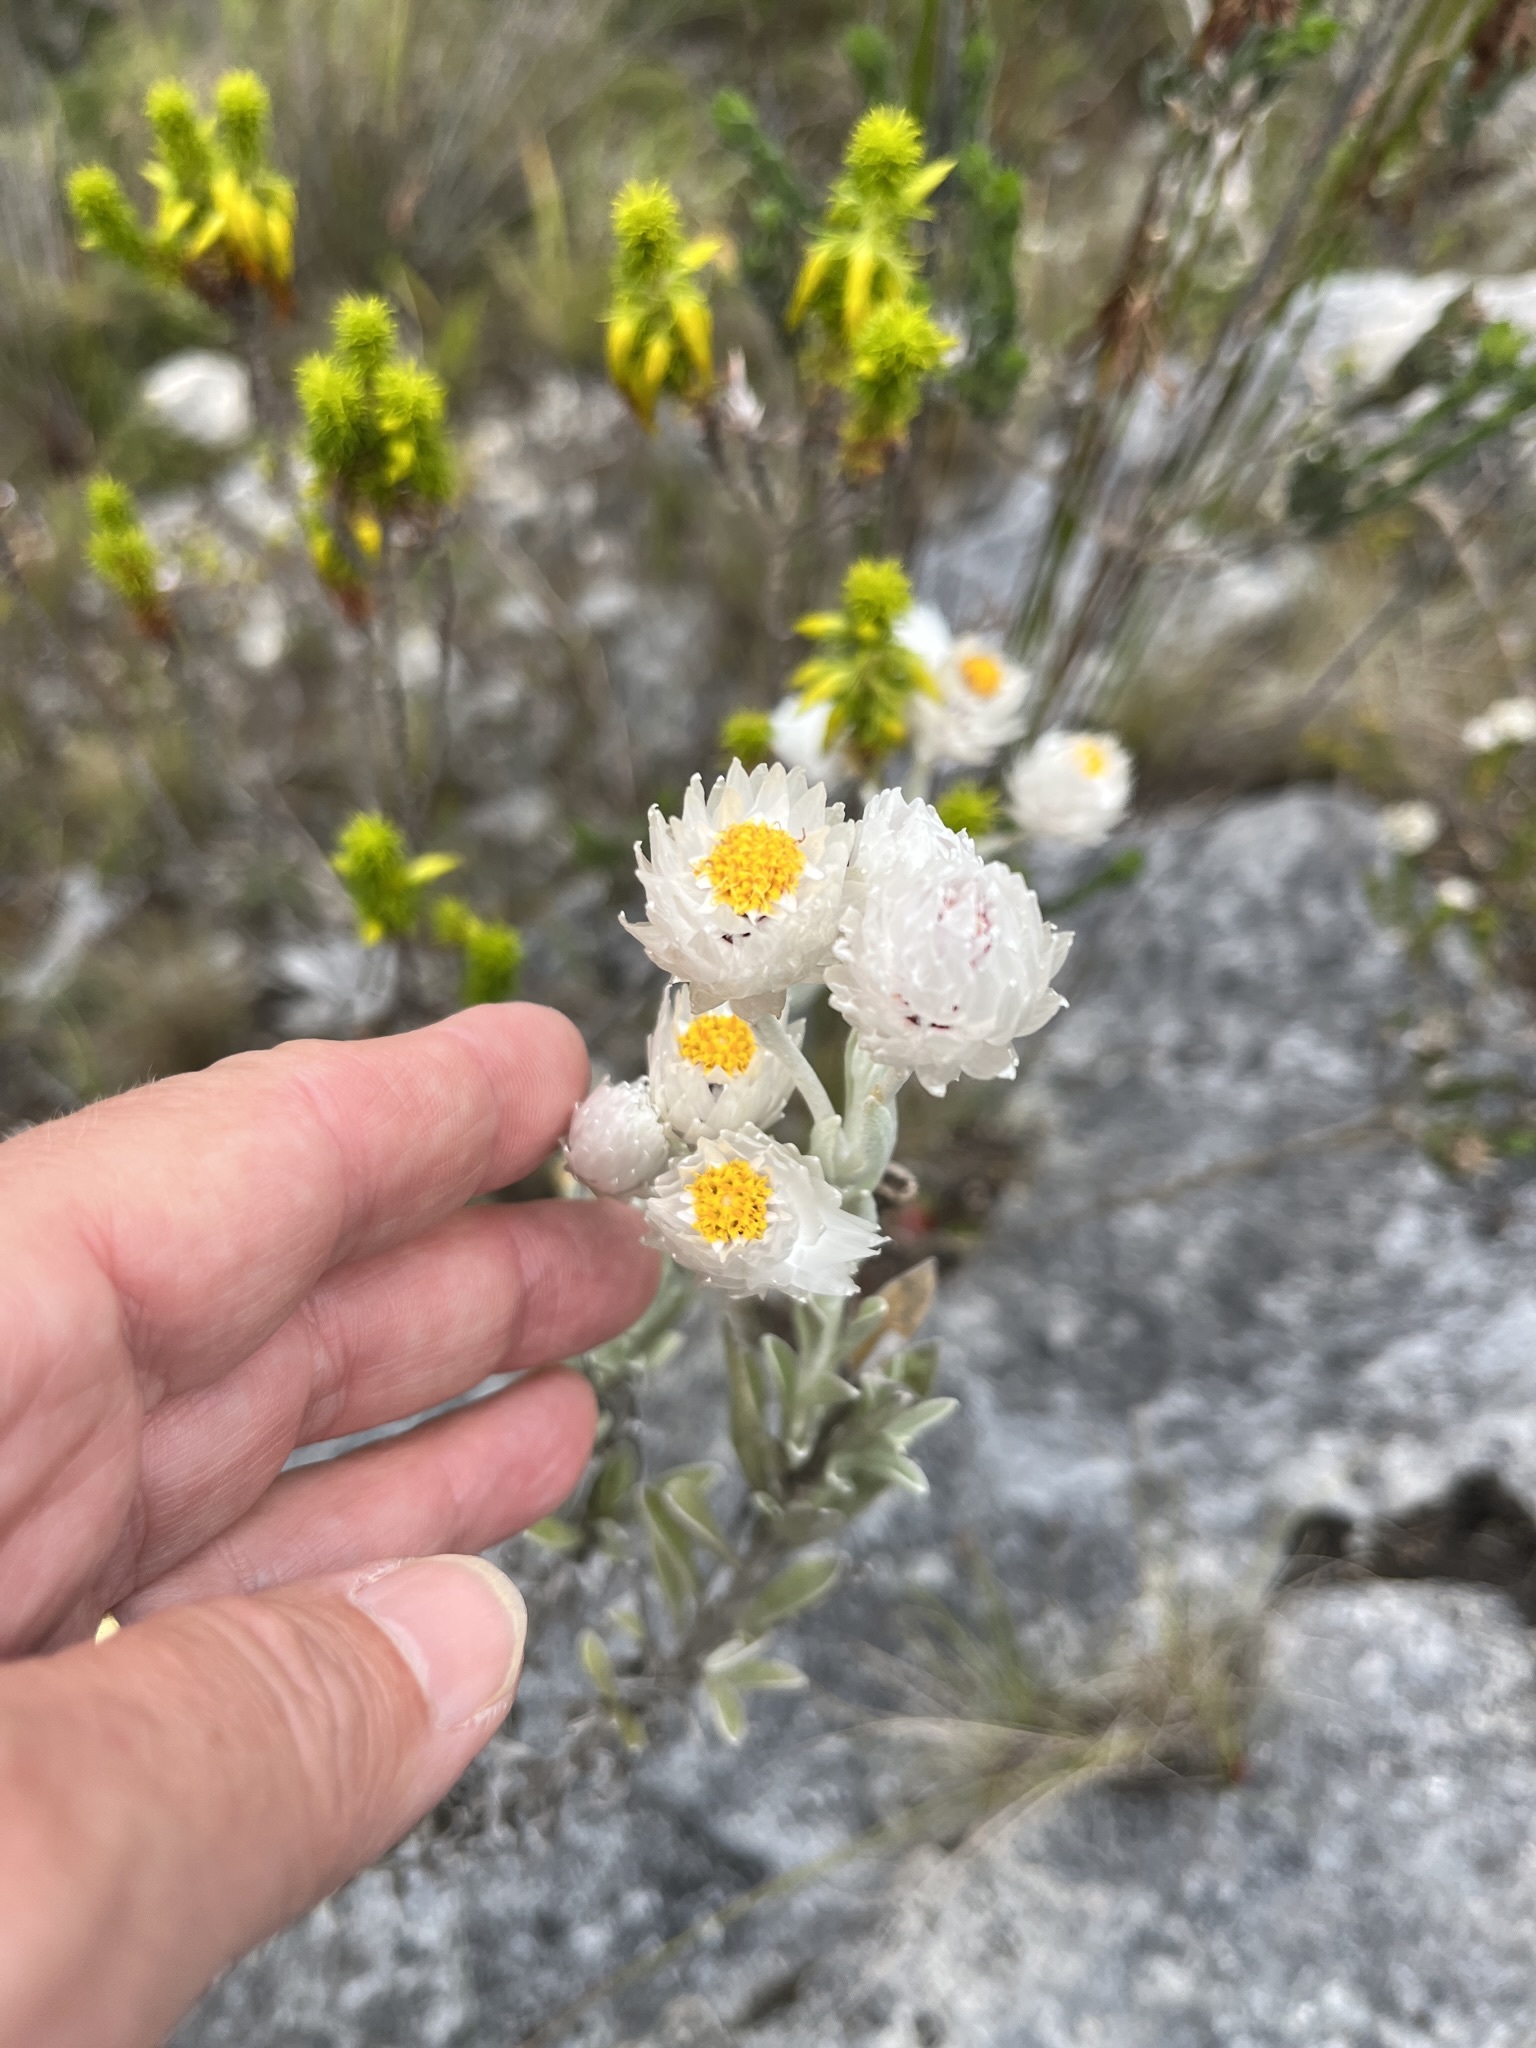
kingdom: Plantae
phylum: Tracheophyta
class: Magnoliopsida
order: Asterales
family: Asteraceae
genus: Achyranthemum
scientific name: Achyranthemum paniculatum
